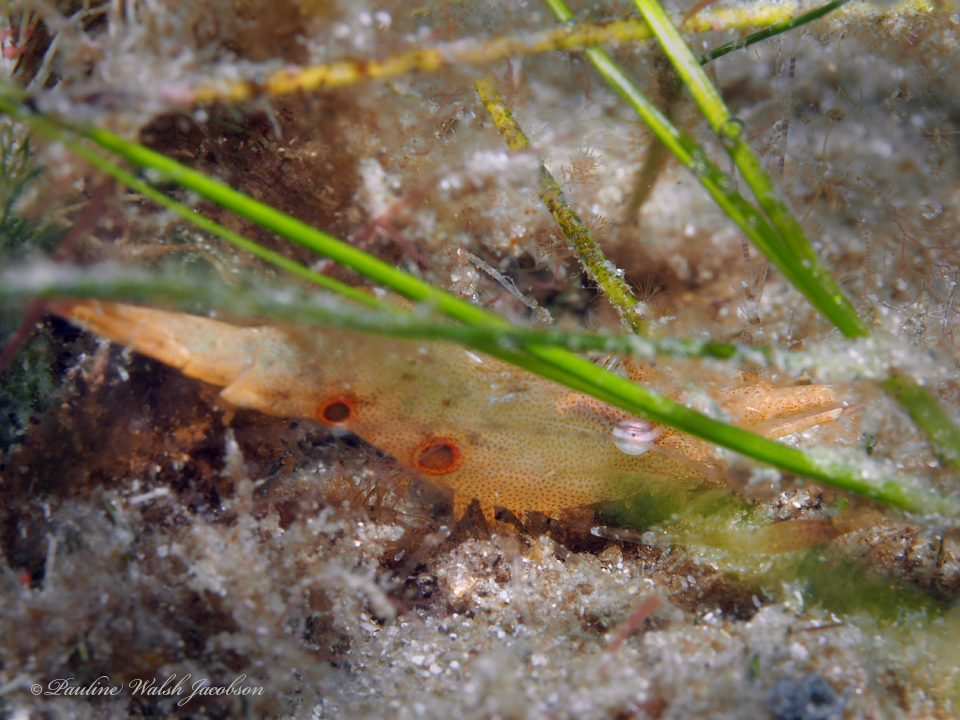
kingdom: Animalia
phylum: Arthropoda
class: Malacostraca
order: Decapoda
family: Palaemonidae
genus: Leander
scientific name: Leander tenuicornis
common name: Brown glass shrimp
